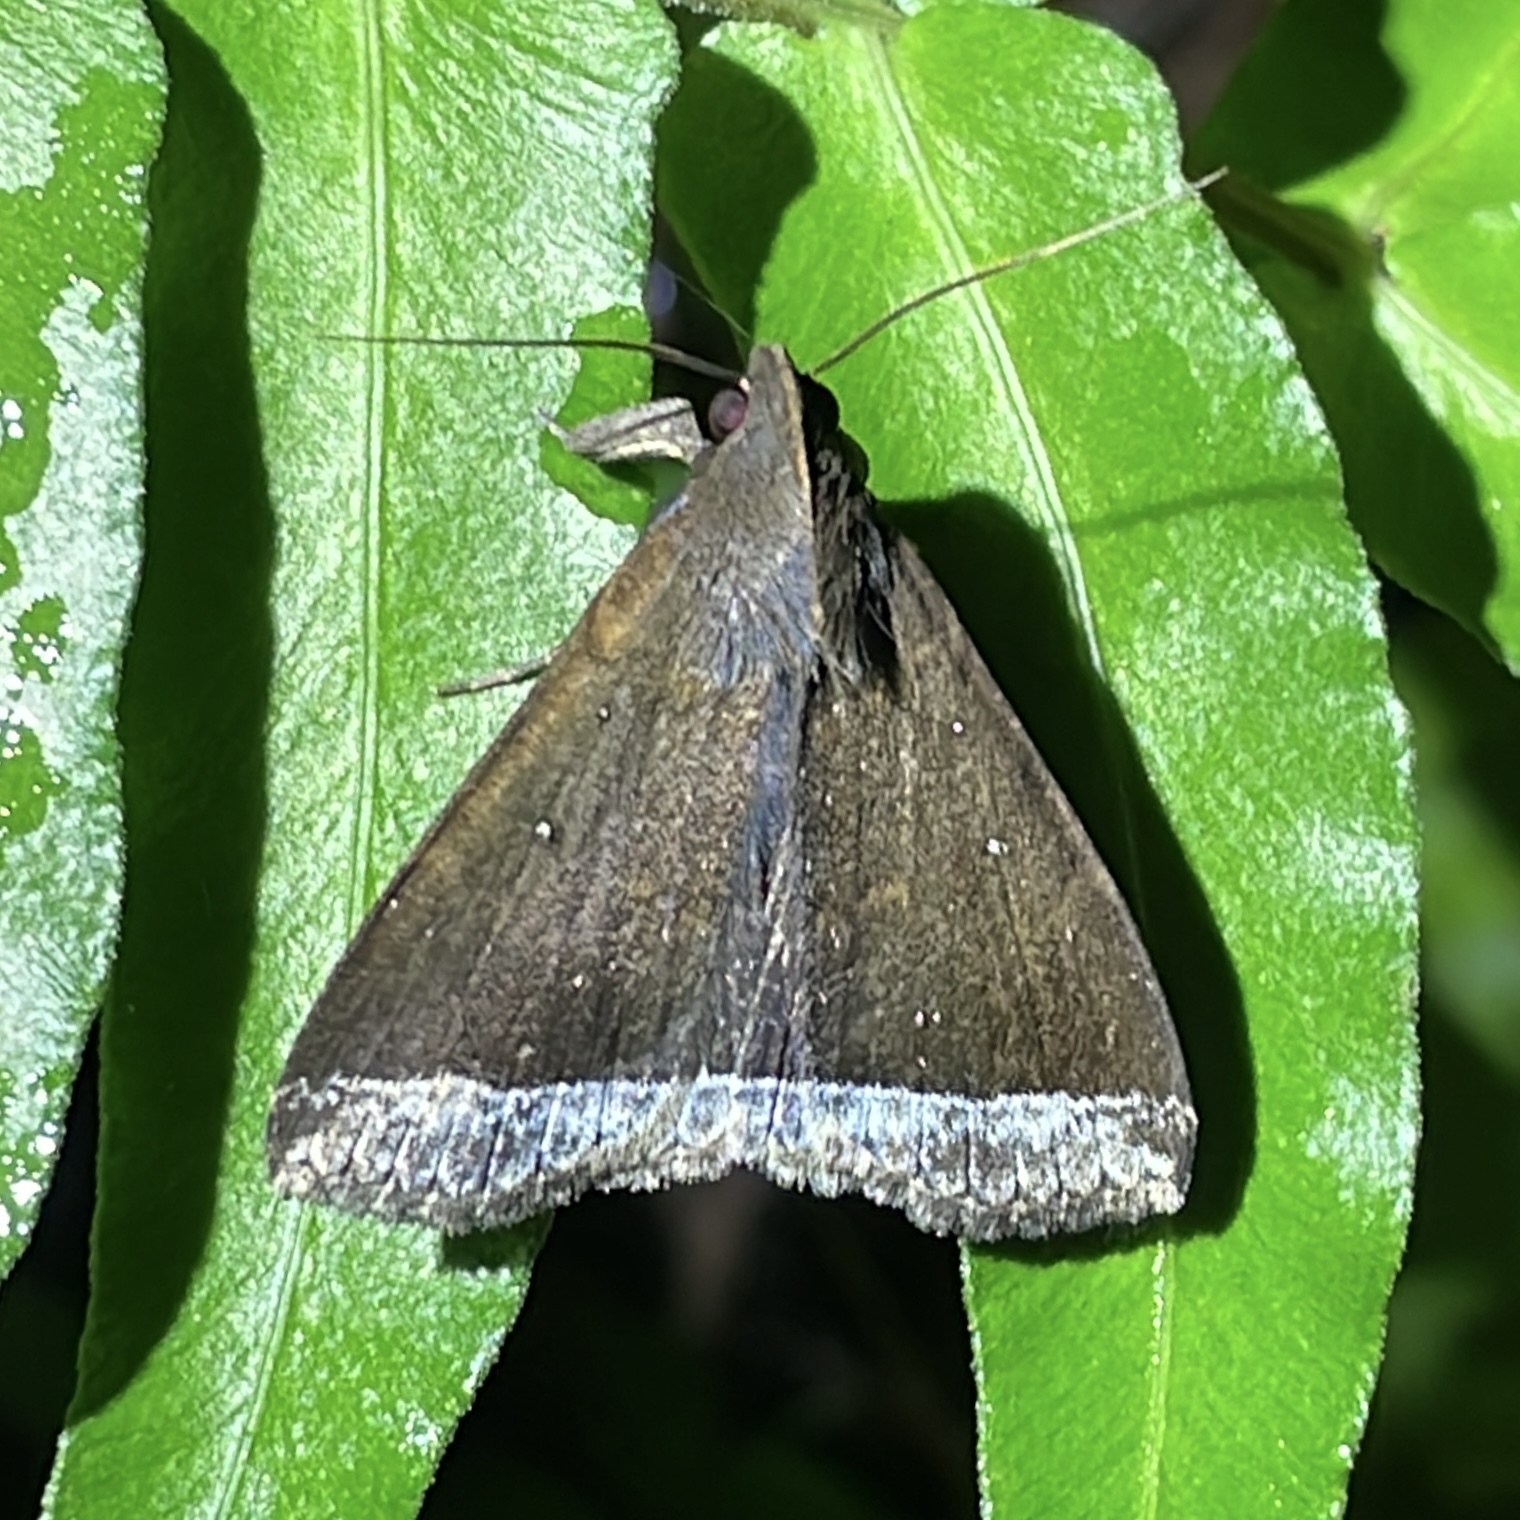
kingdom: Animalia
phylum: Arthropoda
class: Insecta
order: Lepidoptera
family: Erebidae
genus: Mamerthes
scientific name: Mamerthes orionalis
